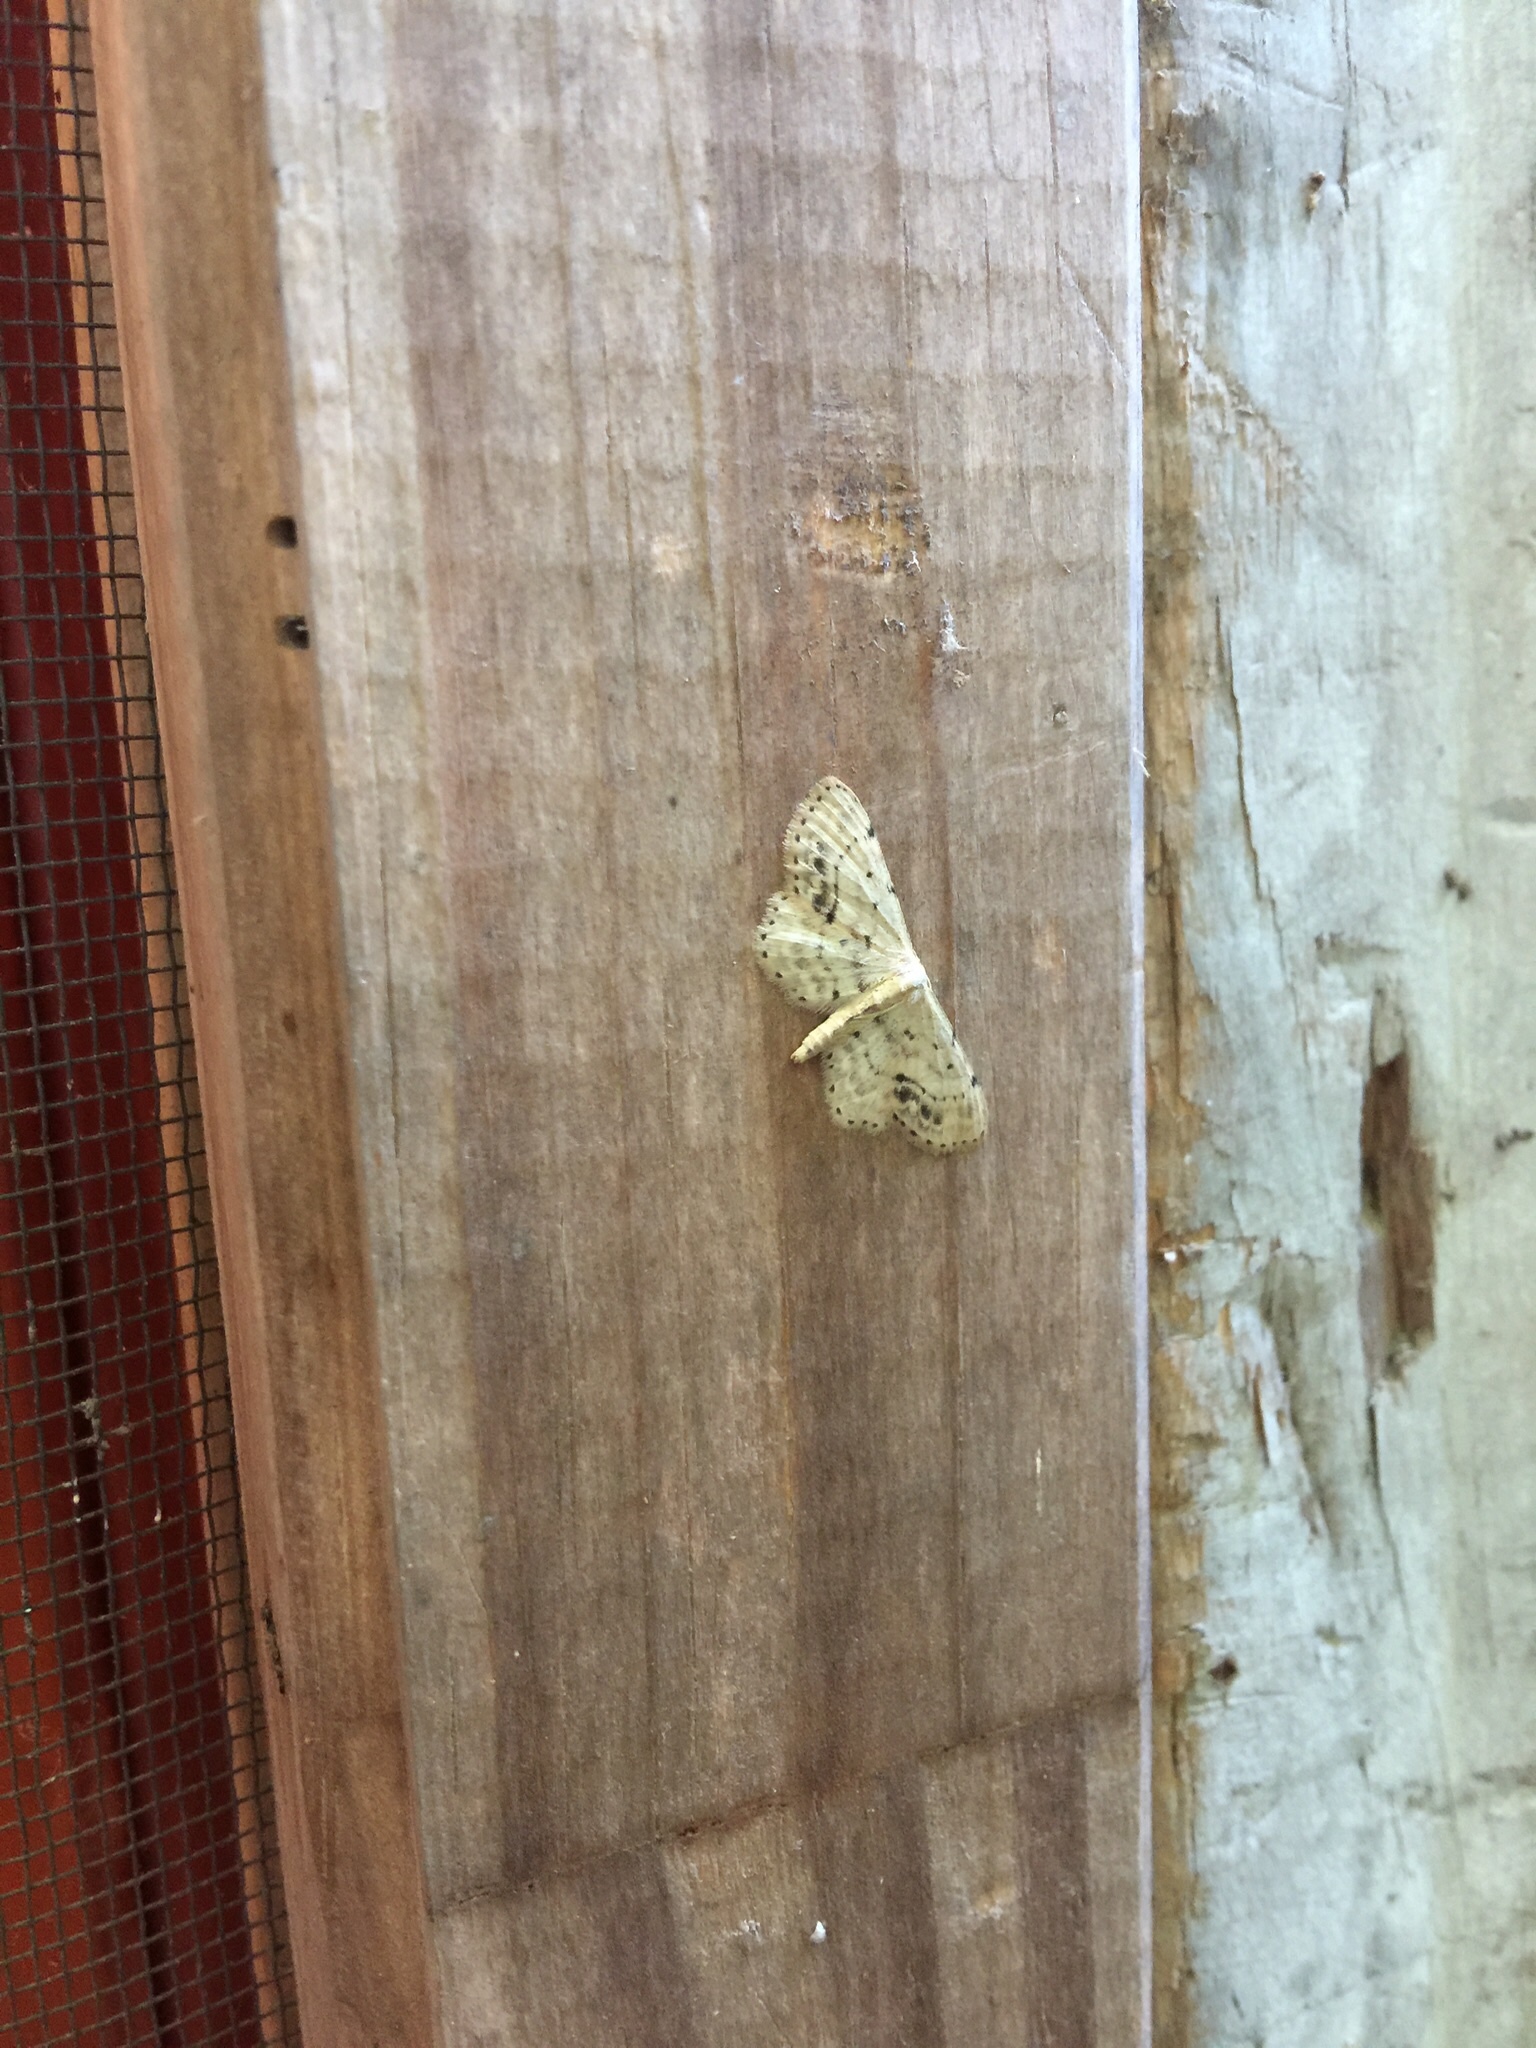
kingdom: Animalia
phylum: Arthropoda
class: Insecta
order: Lepidoptera
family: Geometridae
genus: Idaea
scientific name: Idaea dimidiata
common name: Single-dotted wave
